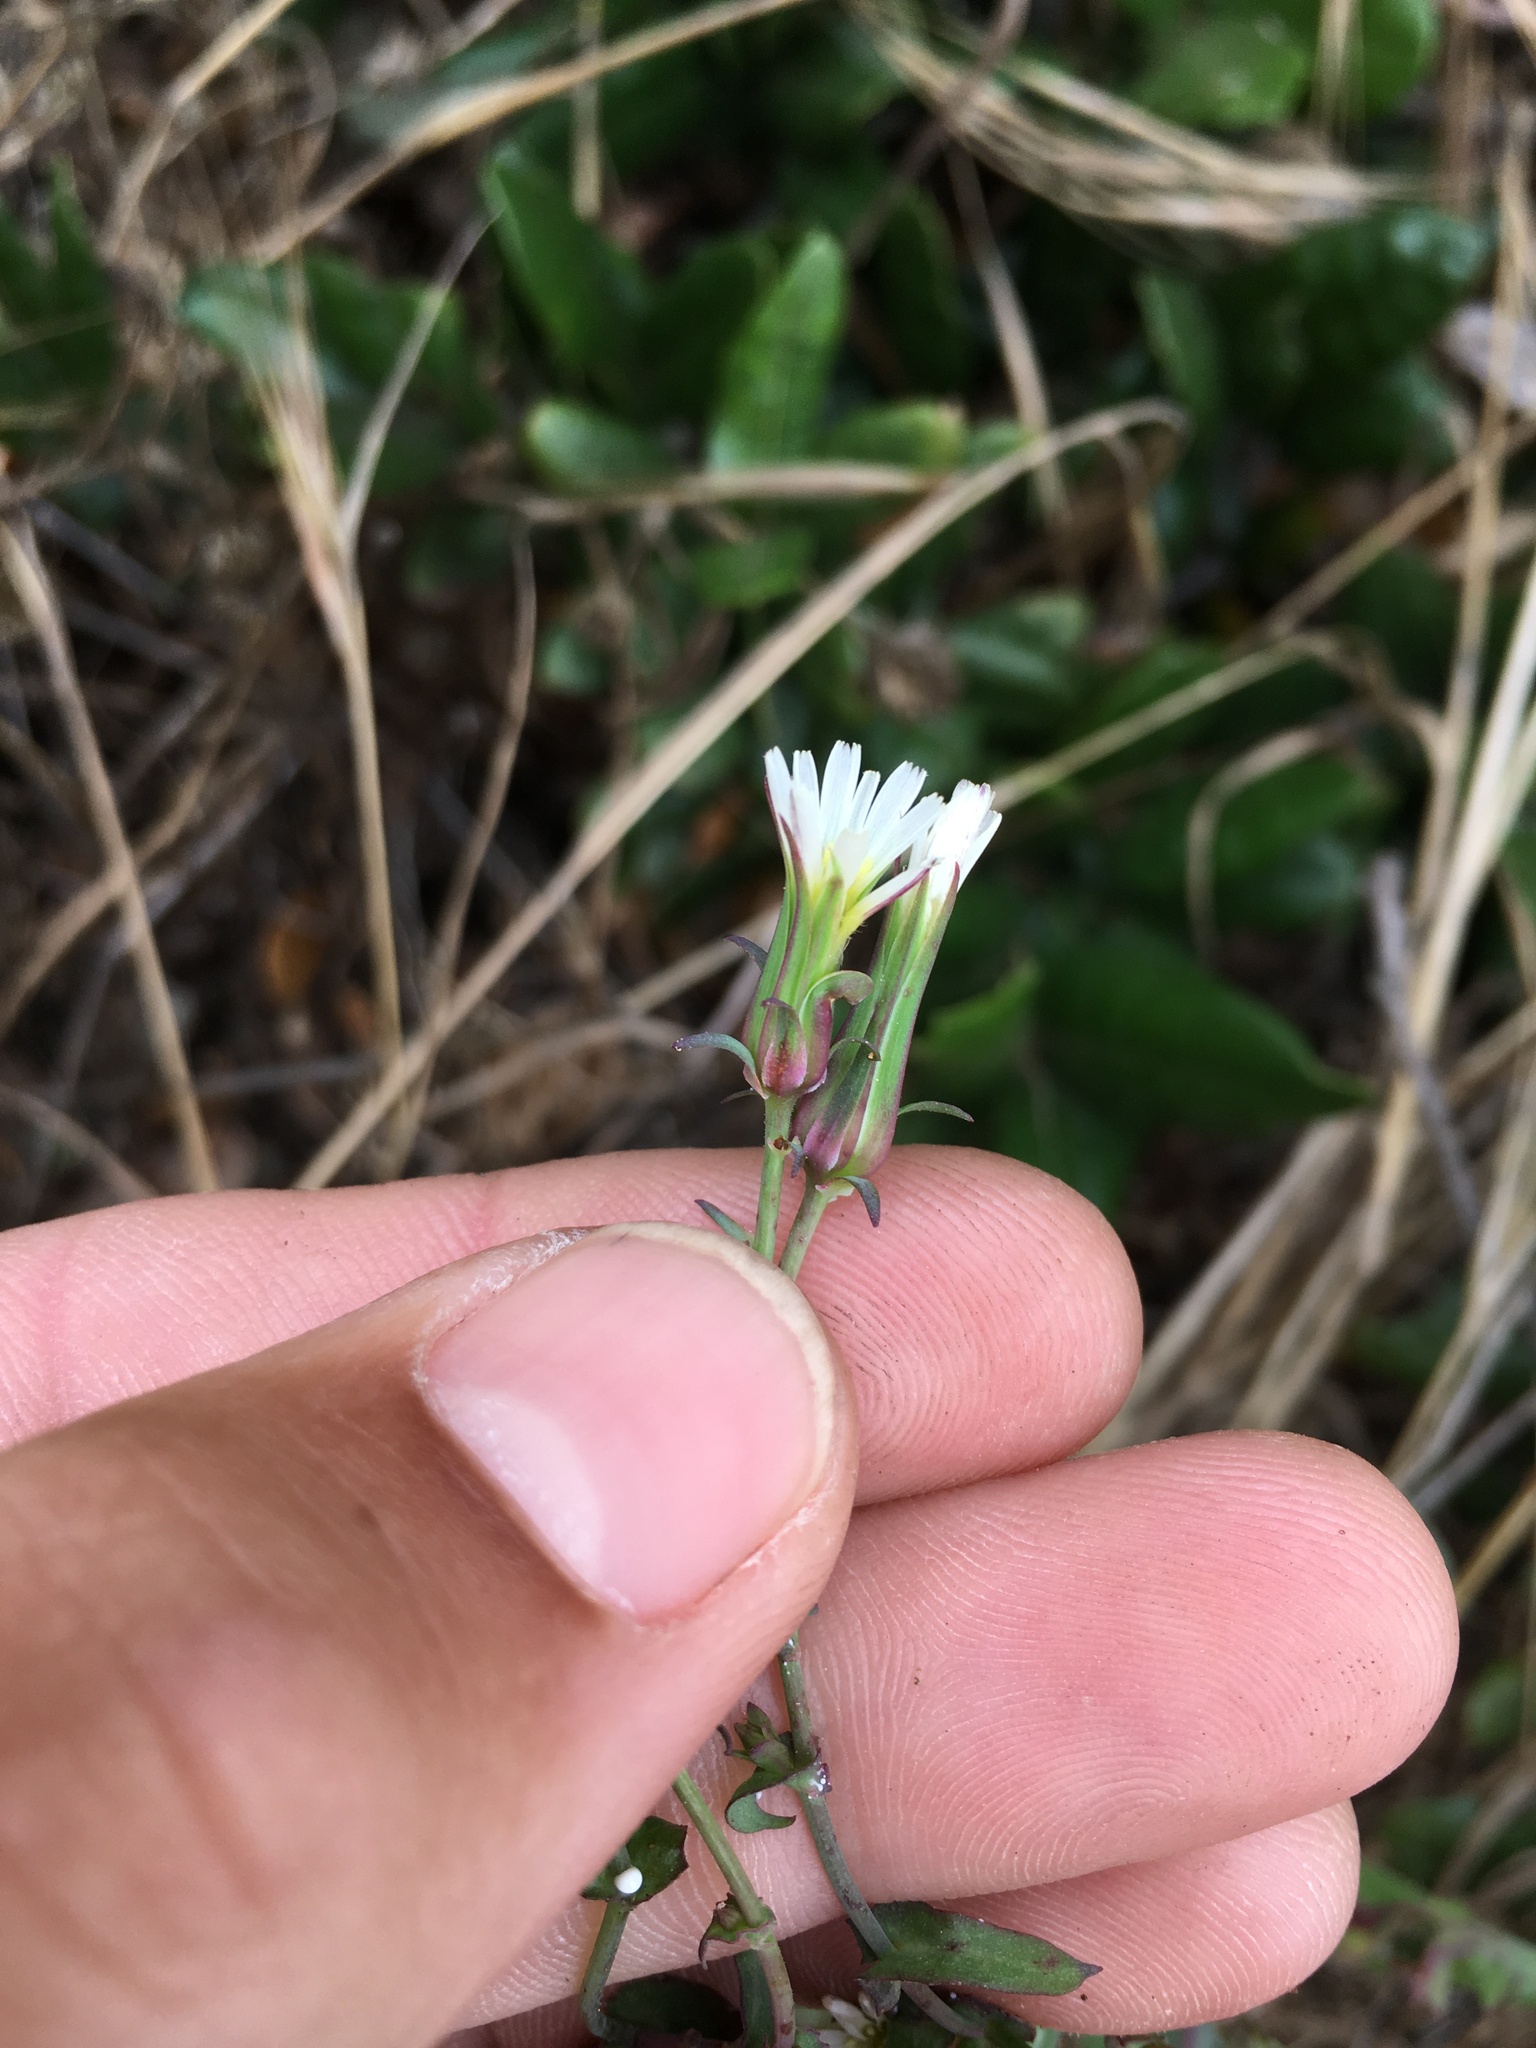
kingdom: Plantae
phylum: Tracheophyta
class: Magnoliopsida
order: Asterales
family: Asteraceae
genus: Rafinesquia
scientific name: Rafinesquia californica
